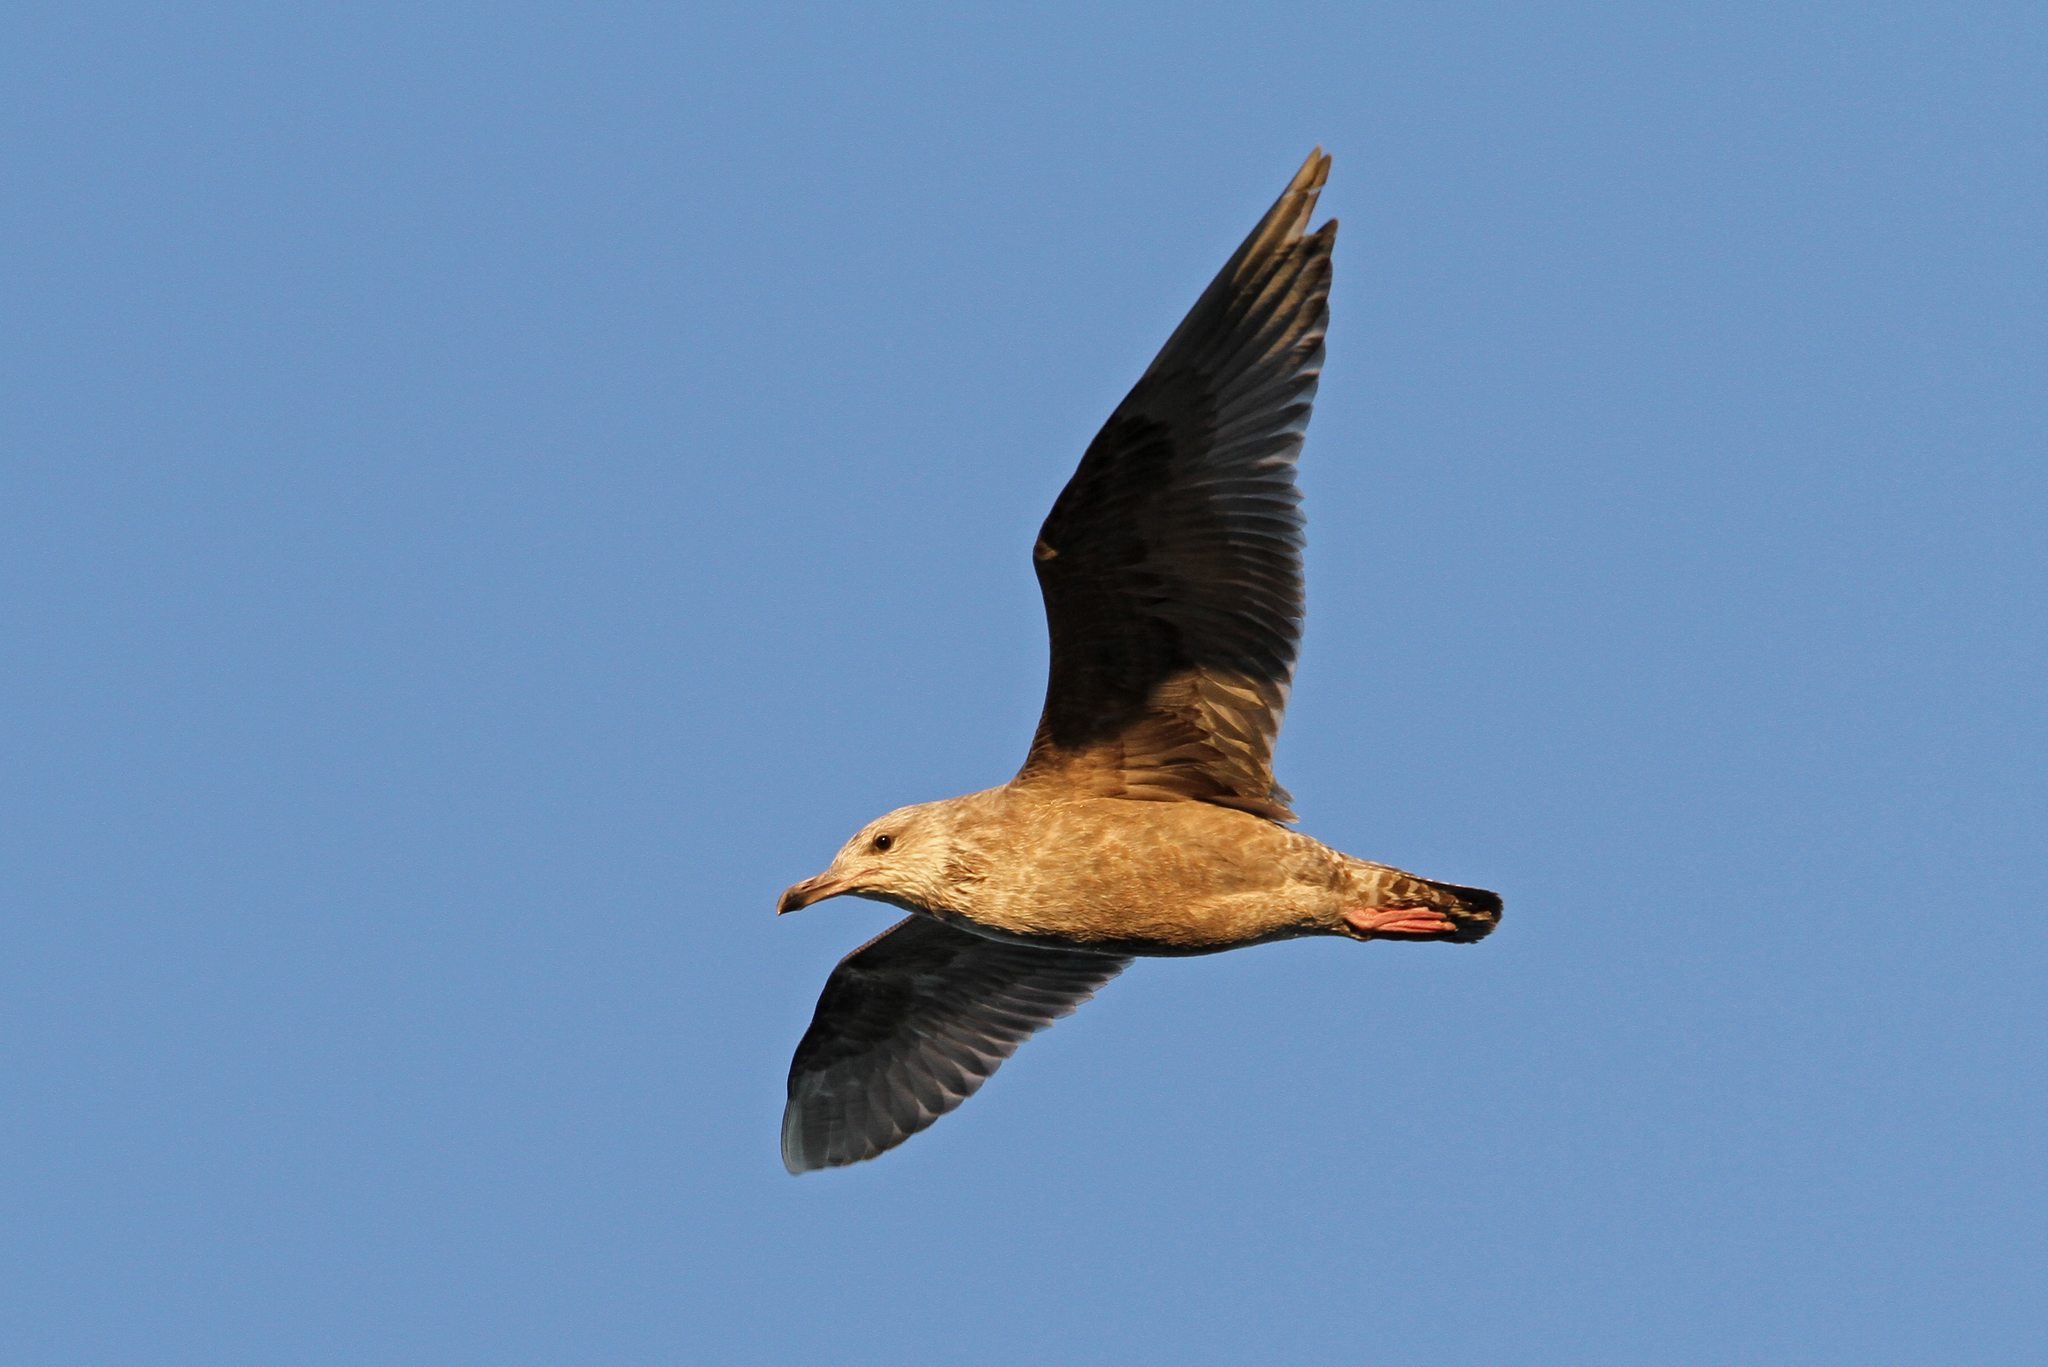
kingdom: Animalia
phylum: Chordata
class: Aves
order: Charadriiformes
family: Laridae
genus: Larus
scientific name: Larus argentatus
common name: Herring gull
